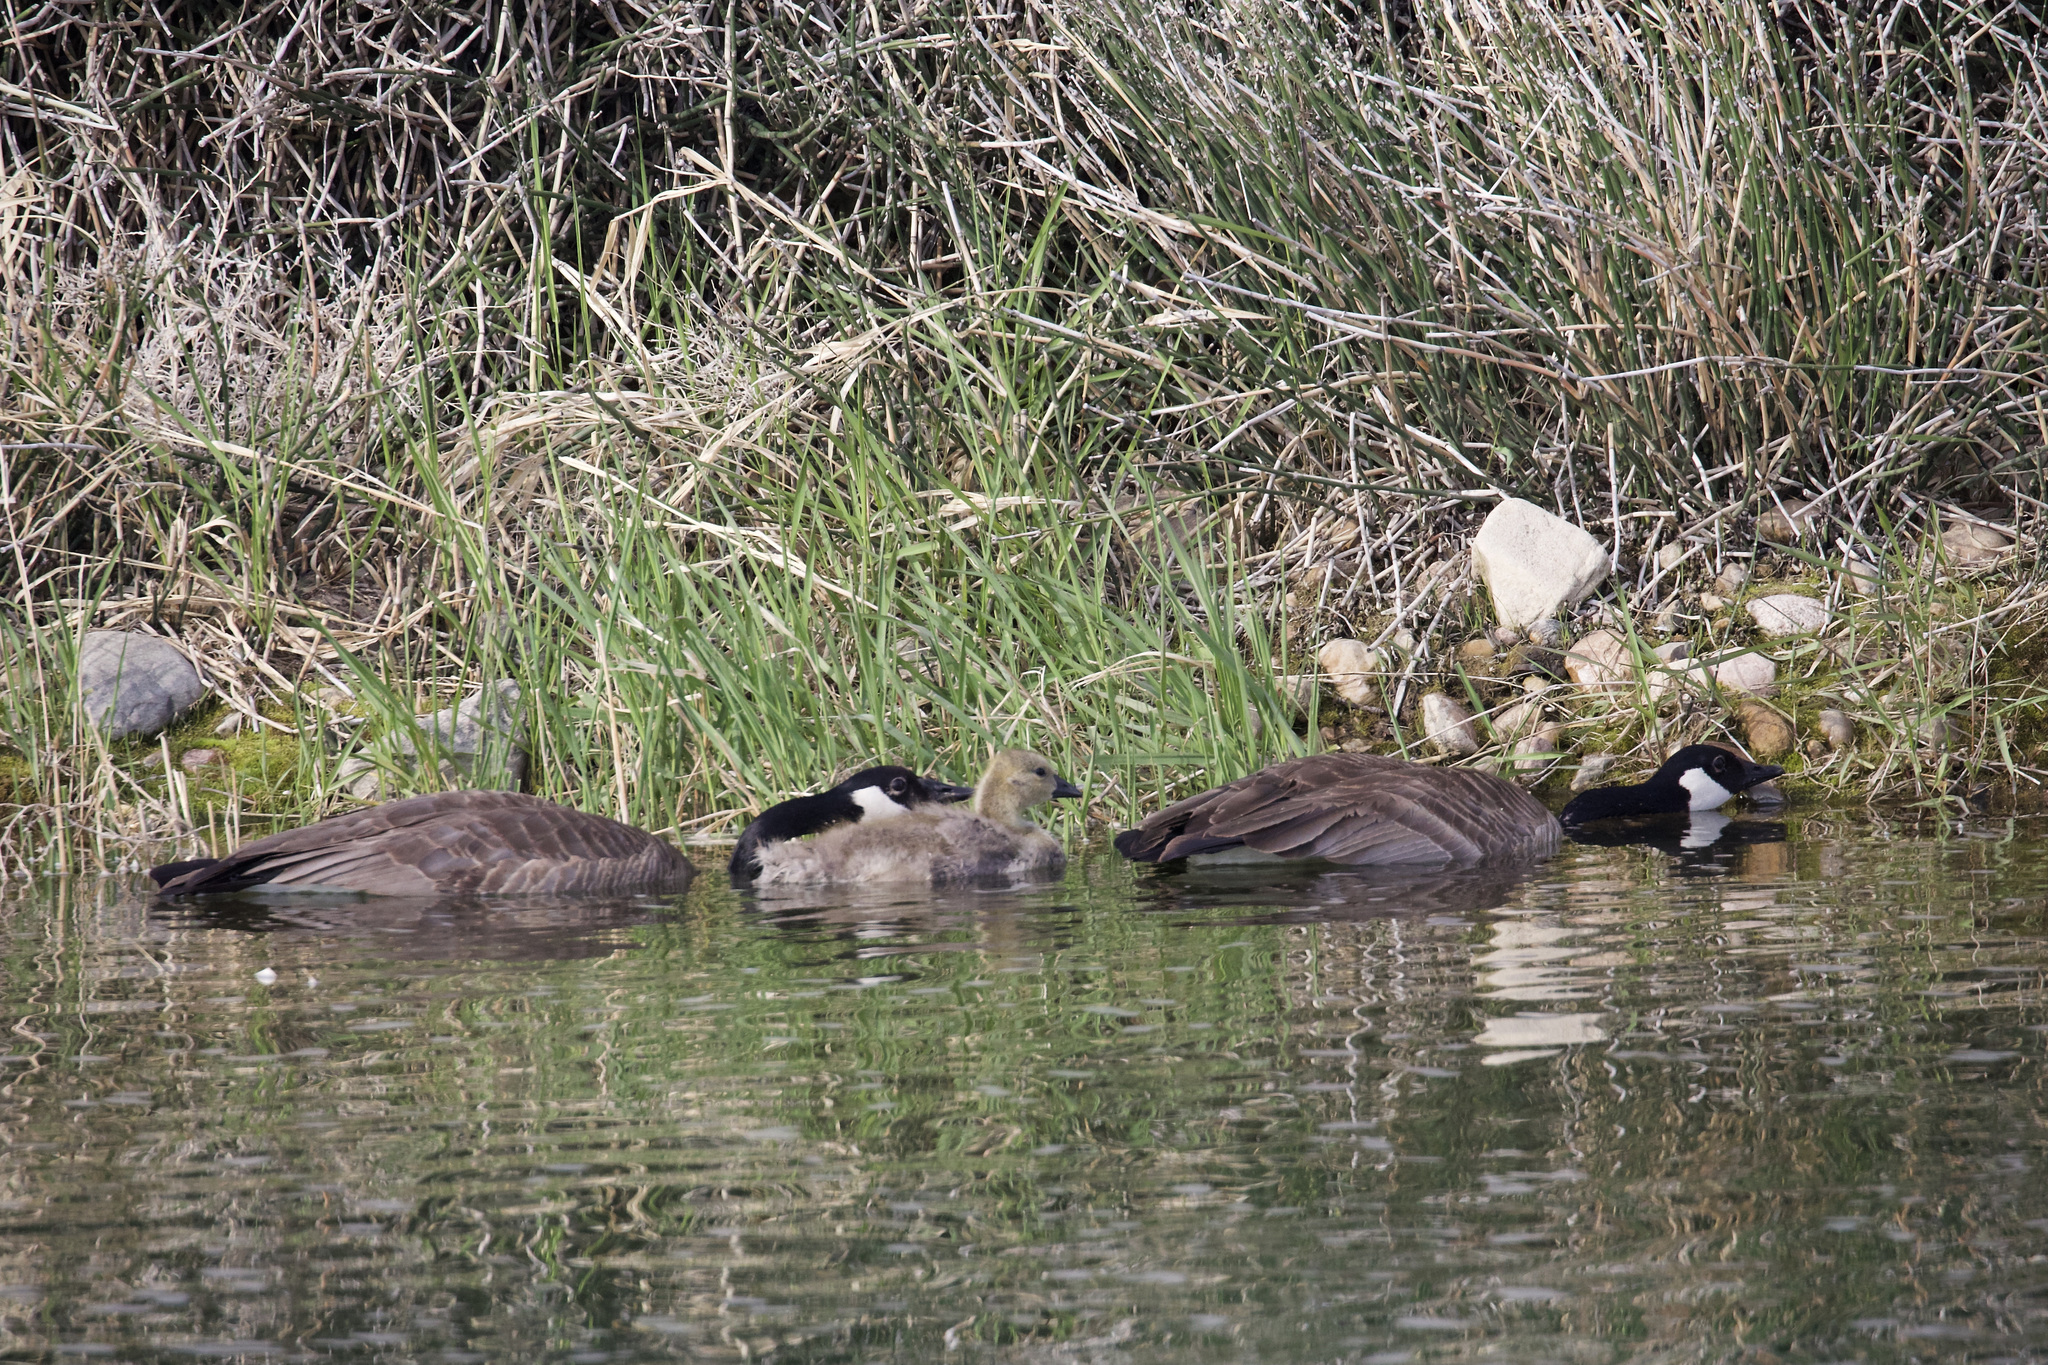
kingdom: Animalia
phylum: Chordata
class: Aves
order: Anseriformes
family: Anatidae
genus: Branta
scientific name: Branta canadensis
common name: Canada goose
